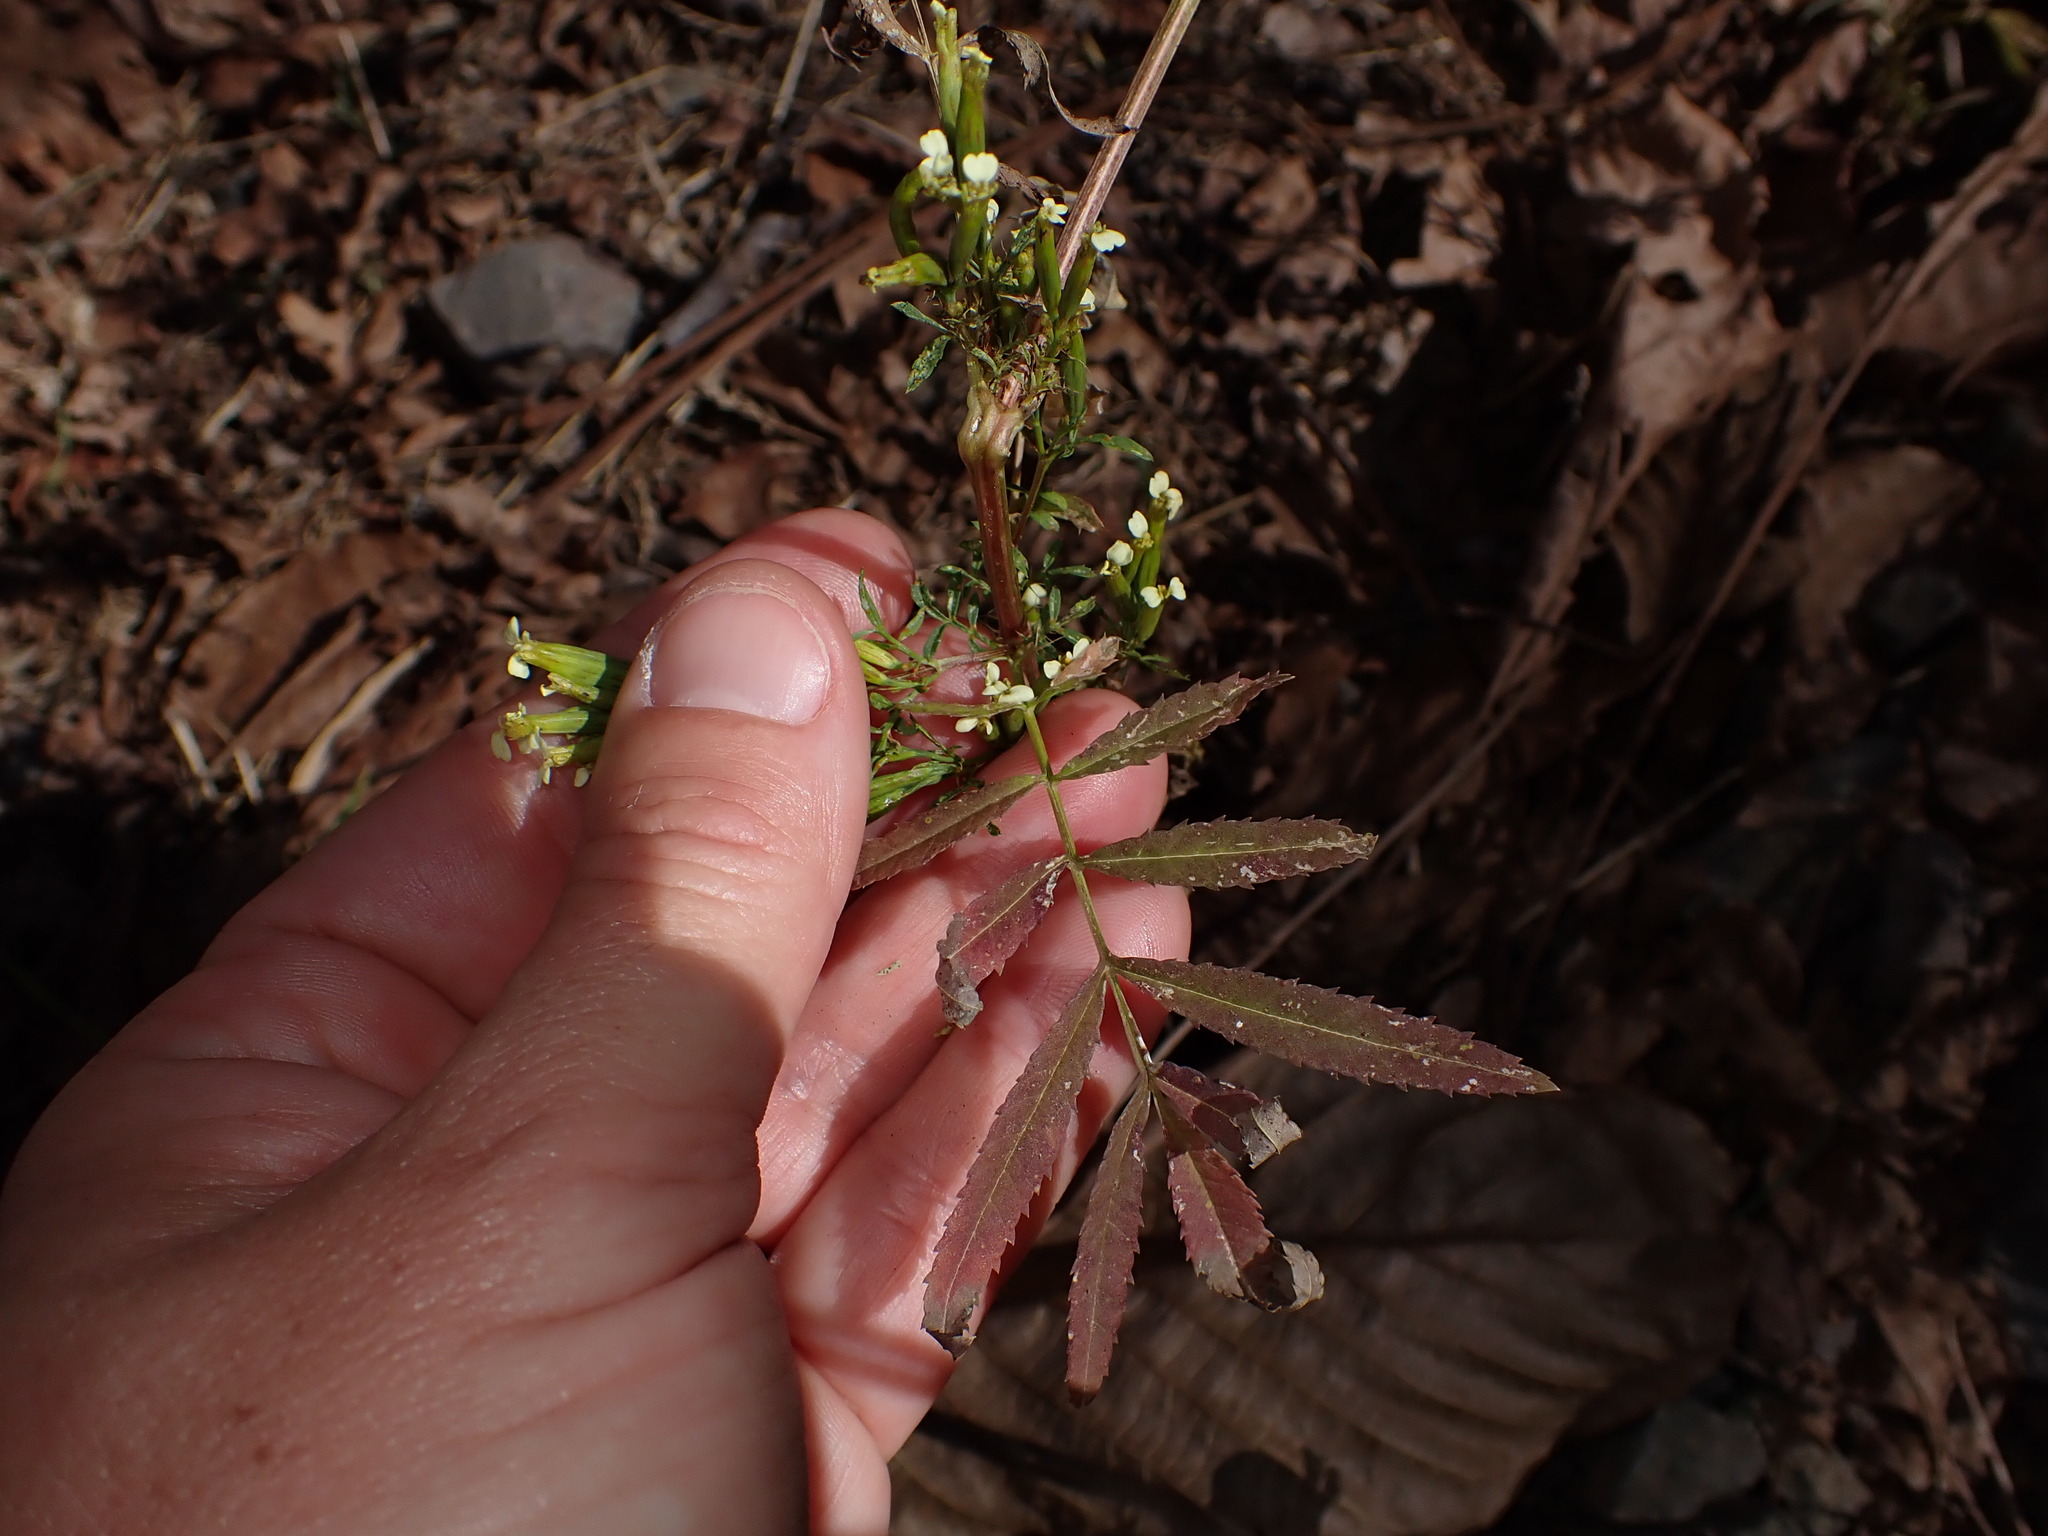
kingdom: Plantae
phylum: Tracheophyta
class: Magnoliopsida
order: Asterales
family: Asteraceae
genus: Tagetes
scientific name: Tagetes minuta
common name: Muster john henry
